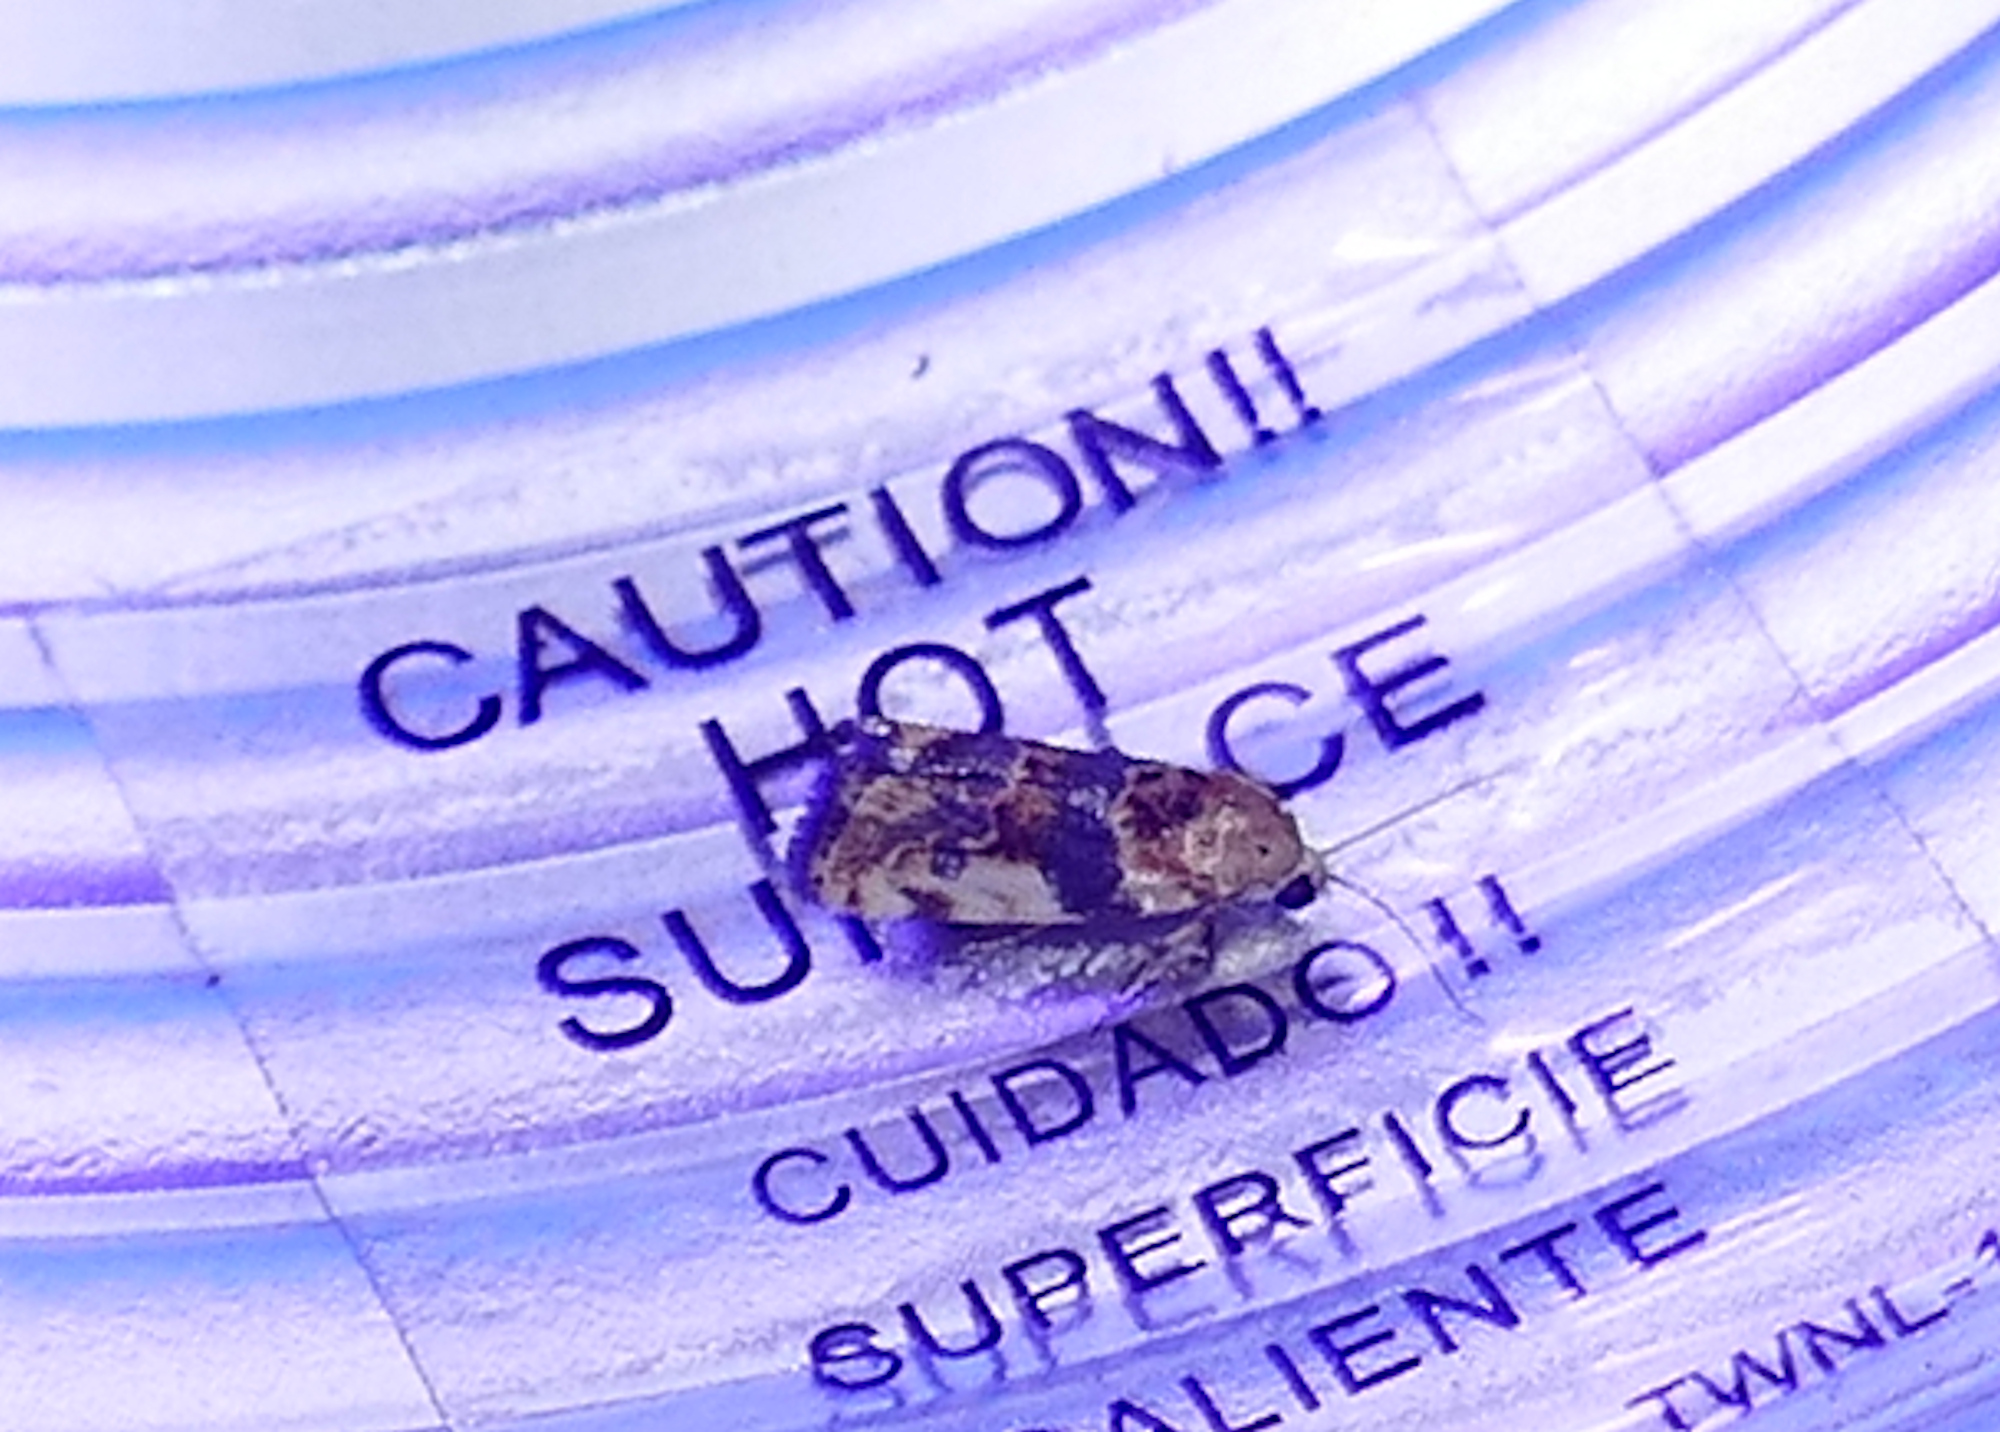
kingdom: Animalia
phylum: Arthropoda
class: Insecta
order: Lepidoptera
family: Noctuidae
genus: Acontia
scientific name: Acontia obatra
